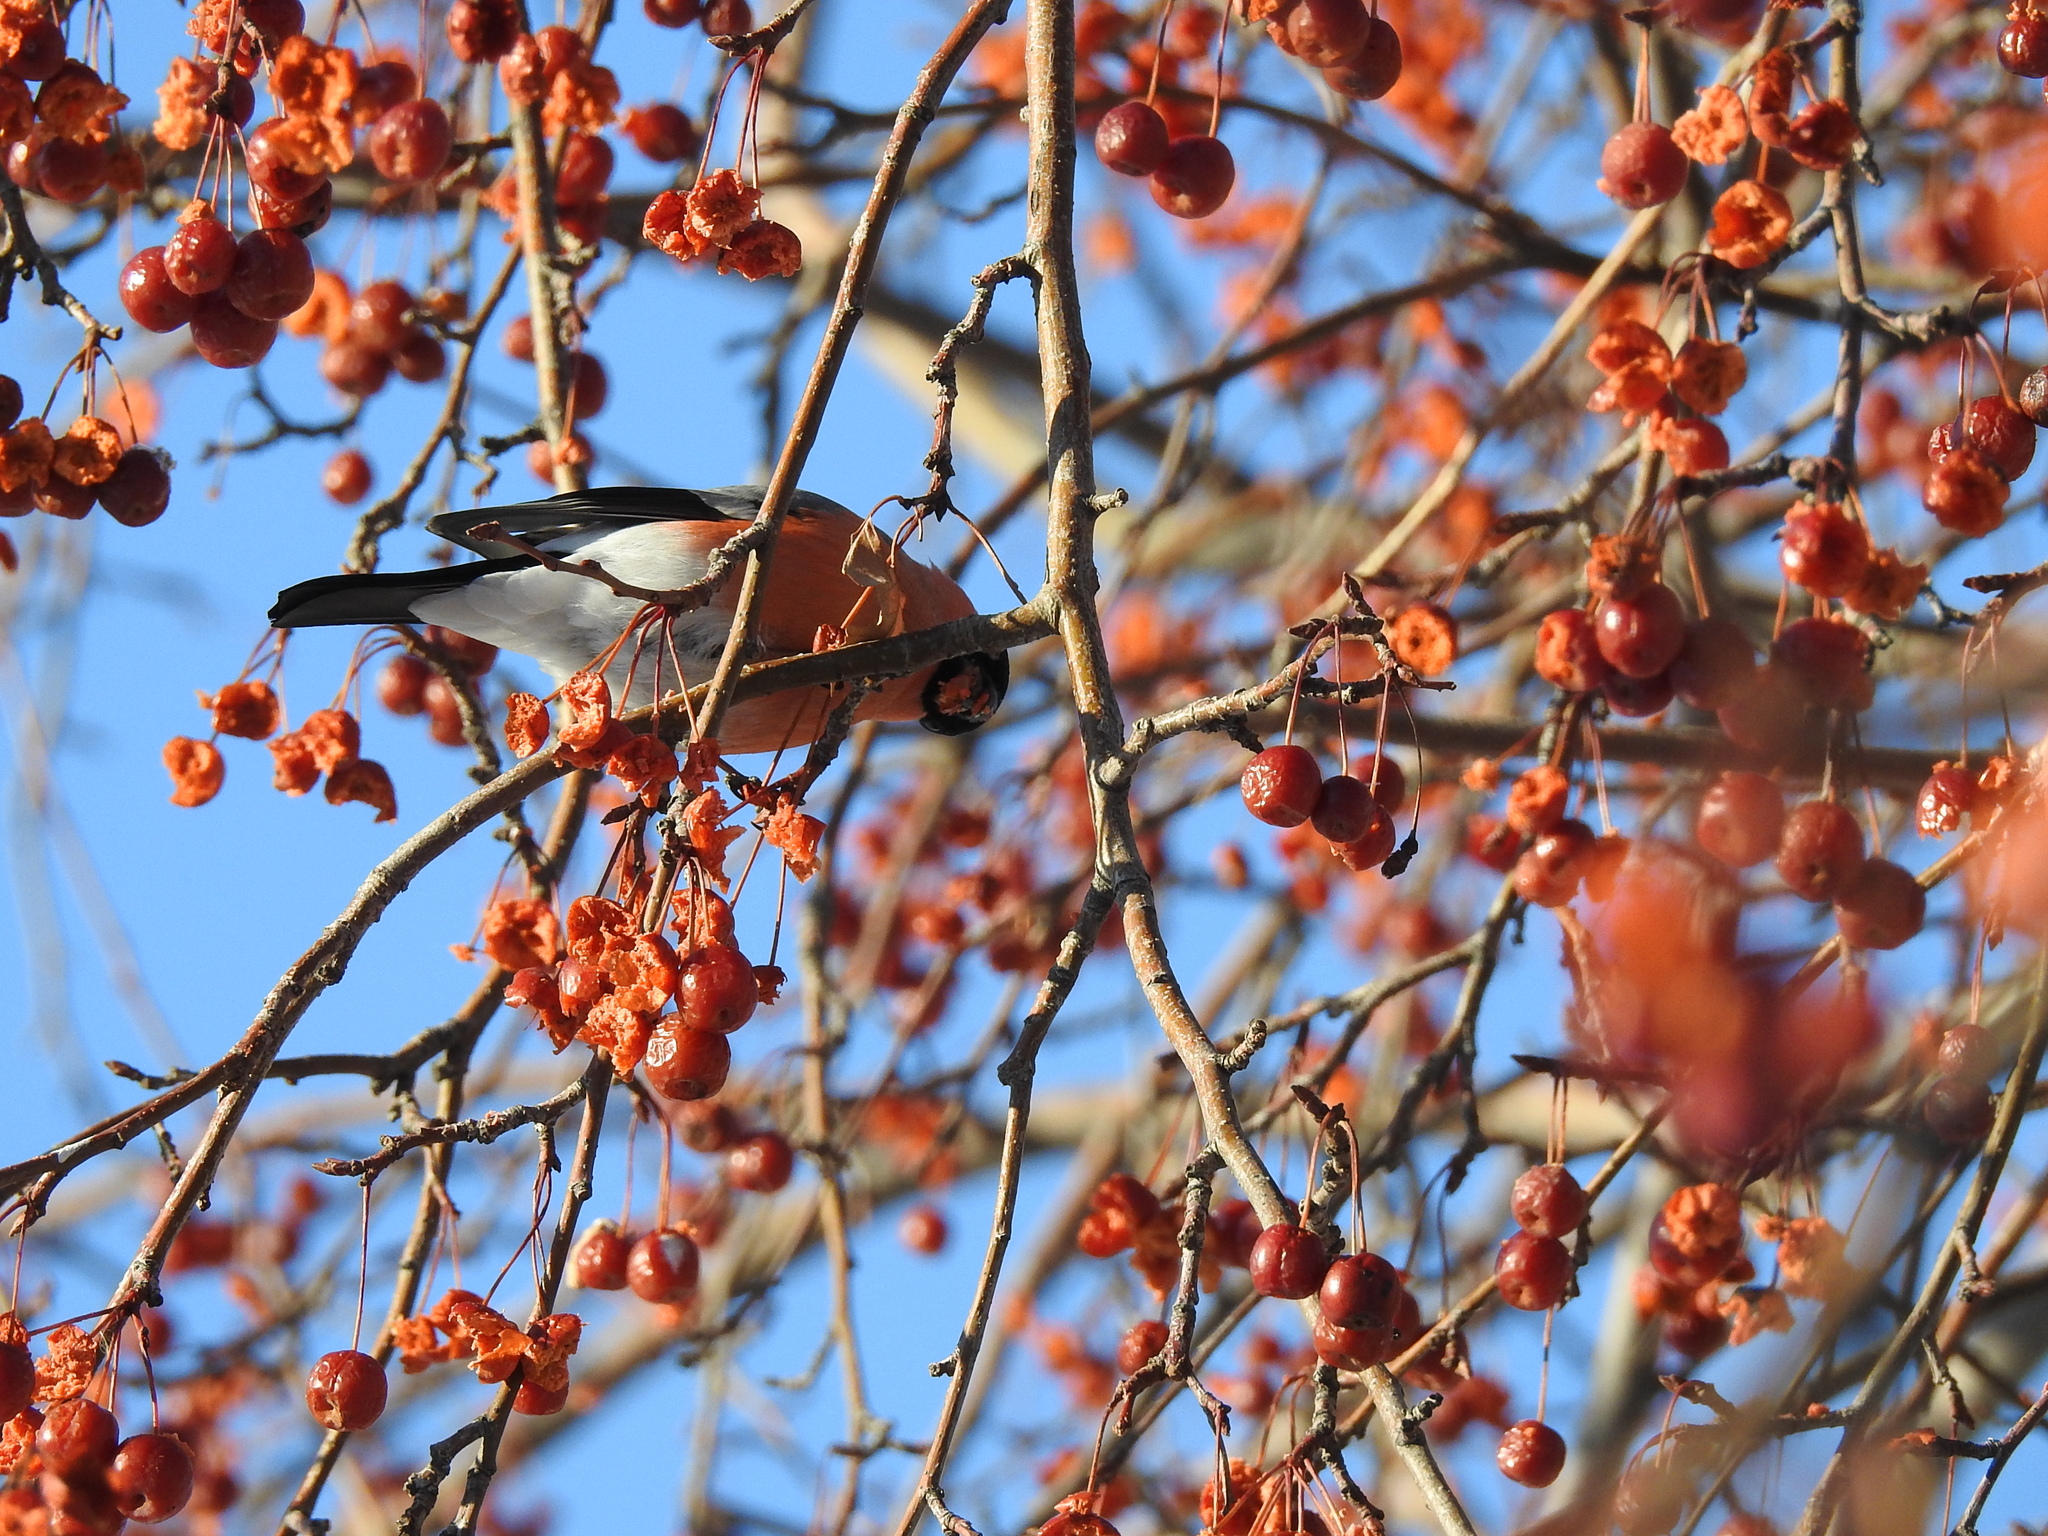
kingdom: Animalia
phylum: Chordata
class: Aves
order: Passeriformes
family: Fringillidae
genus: Pyrrhula
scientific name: Pyrrhula pyrrhula
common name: Eurasian bullfinch
